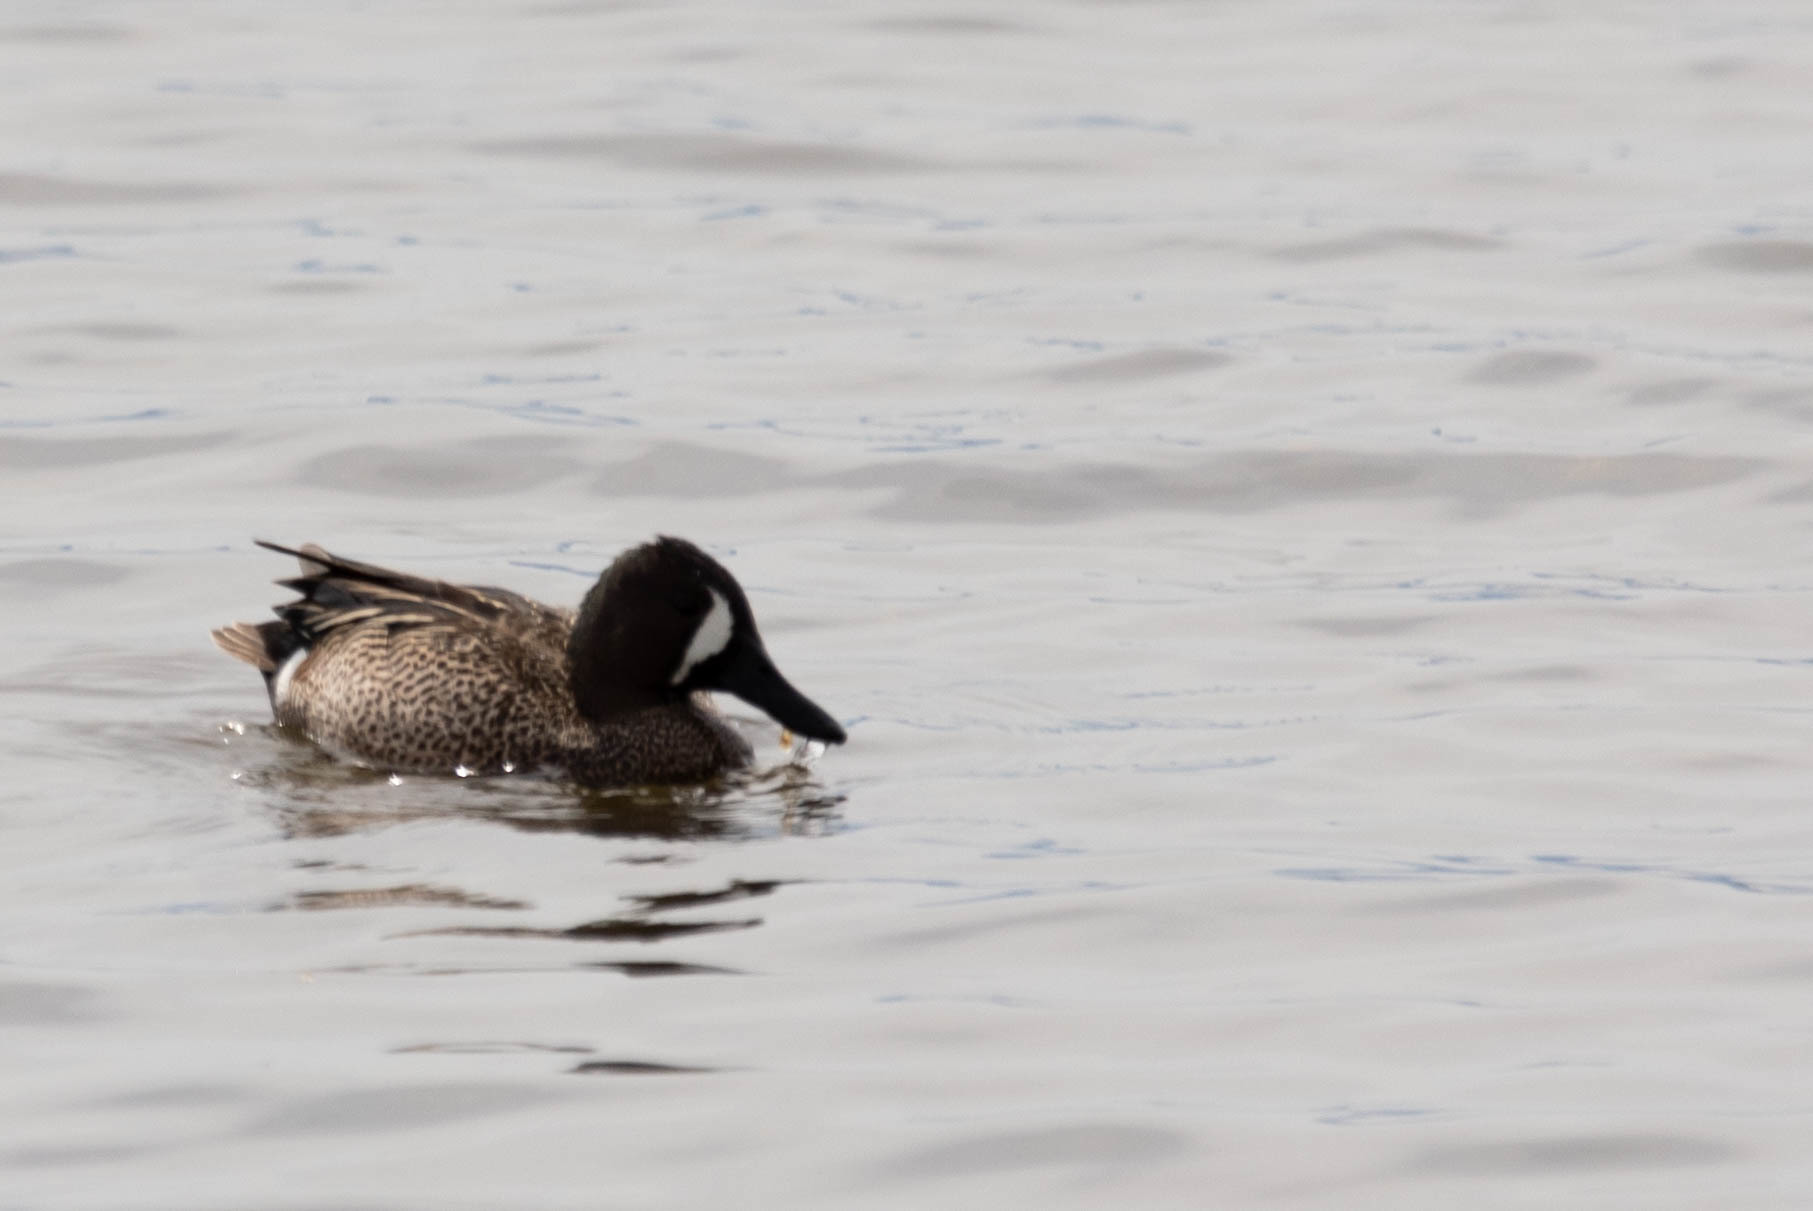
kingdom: Animalia
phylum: Chordata
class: Aves
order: Anseriformes
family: Anatidae
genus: Spatula
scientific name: Spatula discors
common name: Blue-winged teal
